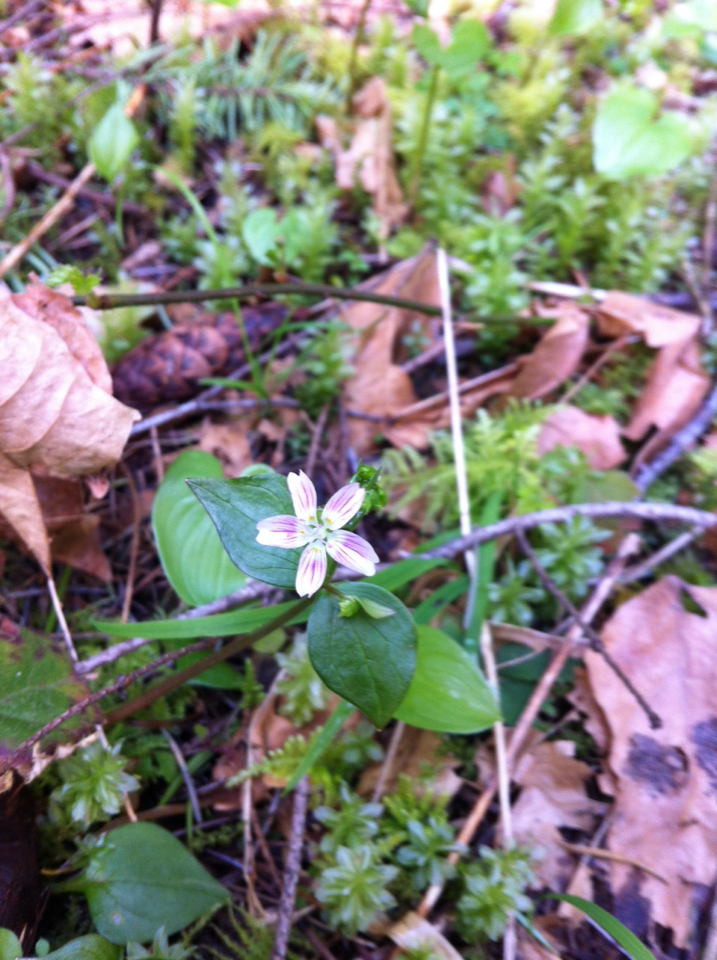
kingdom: Plantae
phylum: Tracheophyta
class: Magnoliopsida
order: Caryophyllales
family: Montiaceae
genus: Claytonia
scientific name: Claytonia sibirica
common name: Pink purslane
